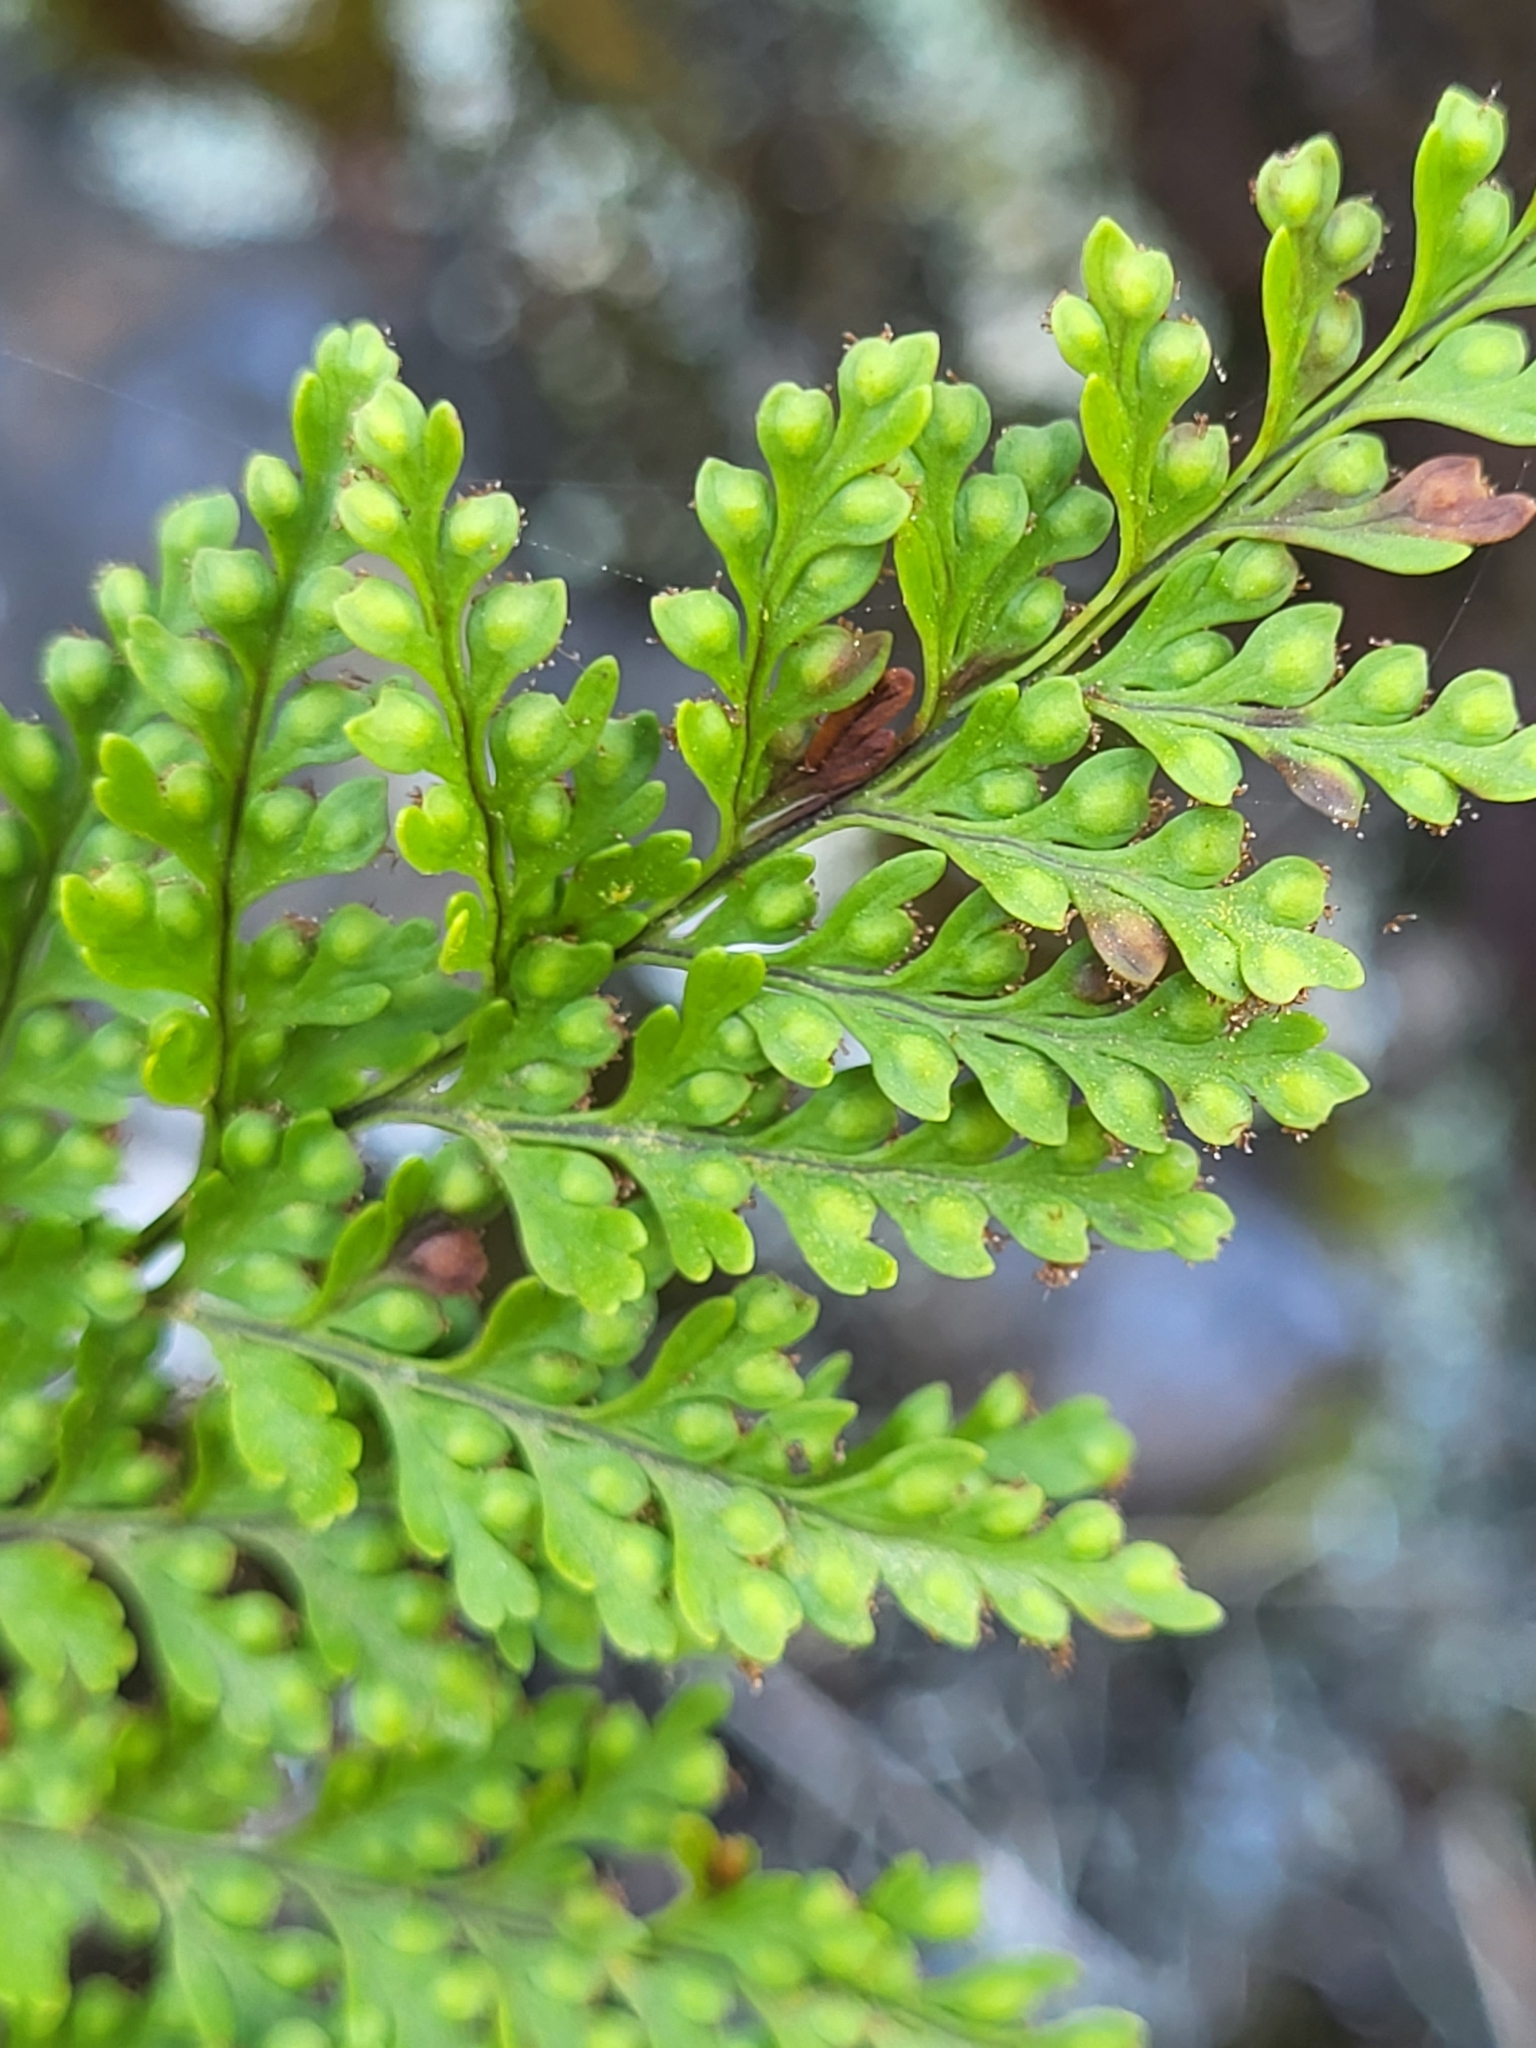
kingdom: Plantae
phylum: Tracheophyta
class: Polypodiopsida
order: Polypodiales
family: Davalliaceae
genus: Davallia
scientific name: Davallia canariensis
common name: Hare's-foot fern
